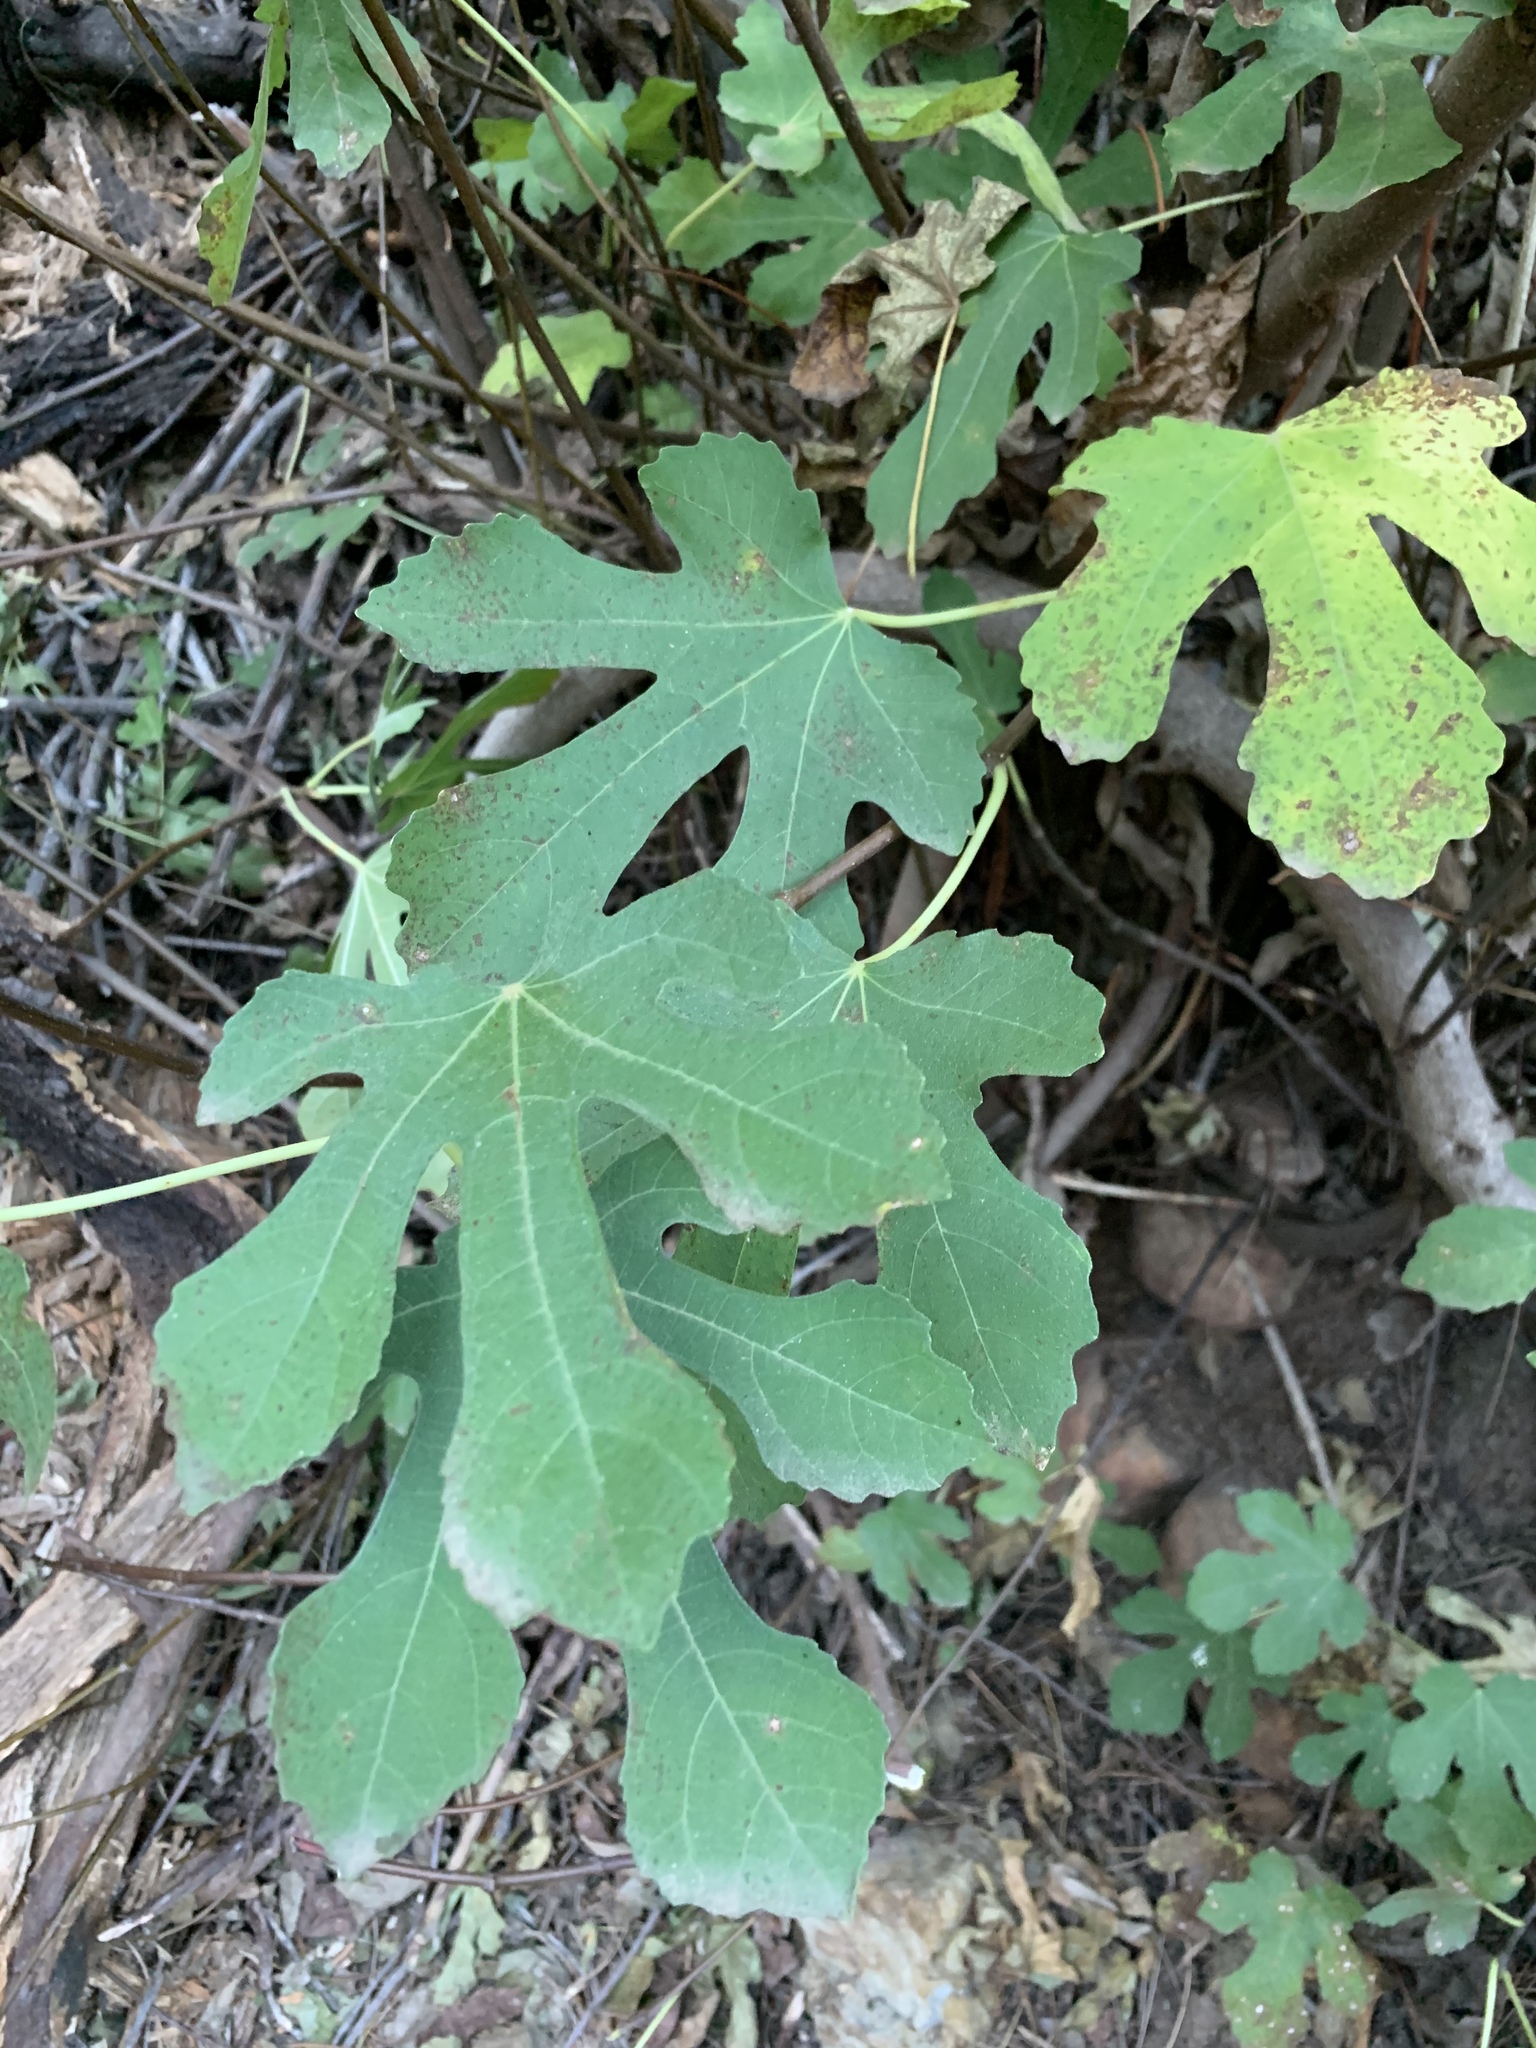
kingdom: Plantae
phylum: Tracheophyta
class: Magnoliopsida
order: Rosales
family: Moraceae
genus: Ficus
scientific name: Ficus carica
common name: Fig
